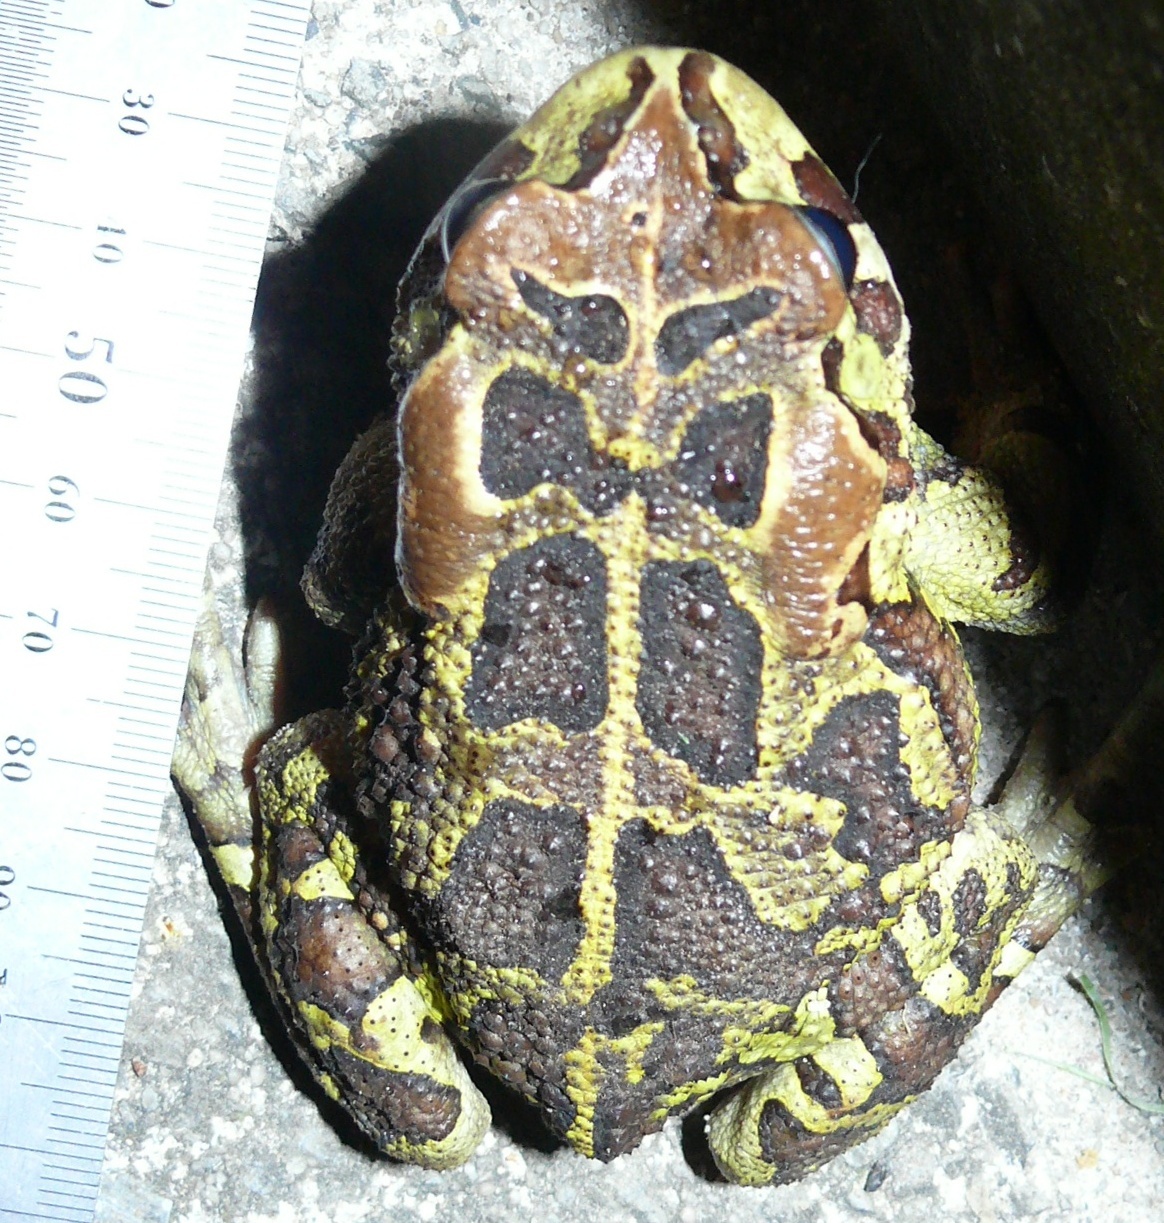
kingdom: Animalia
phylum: Chordata
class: Amphibia
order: Anura
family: Bufonidae
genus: Sclerophrys
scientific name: Sclerophrys pantherina
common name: Panther toad
